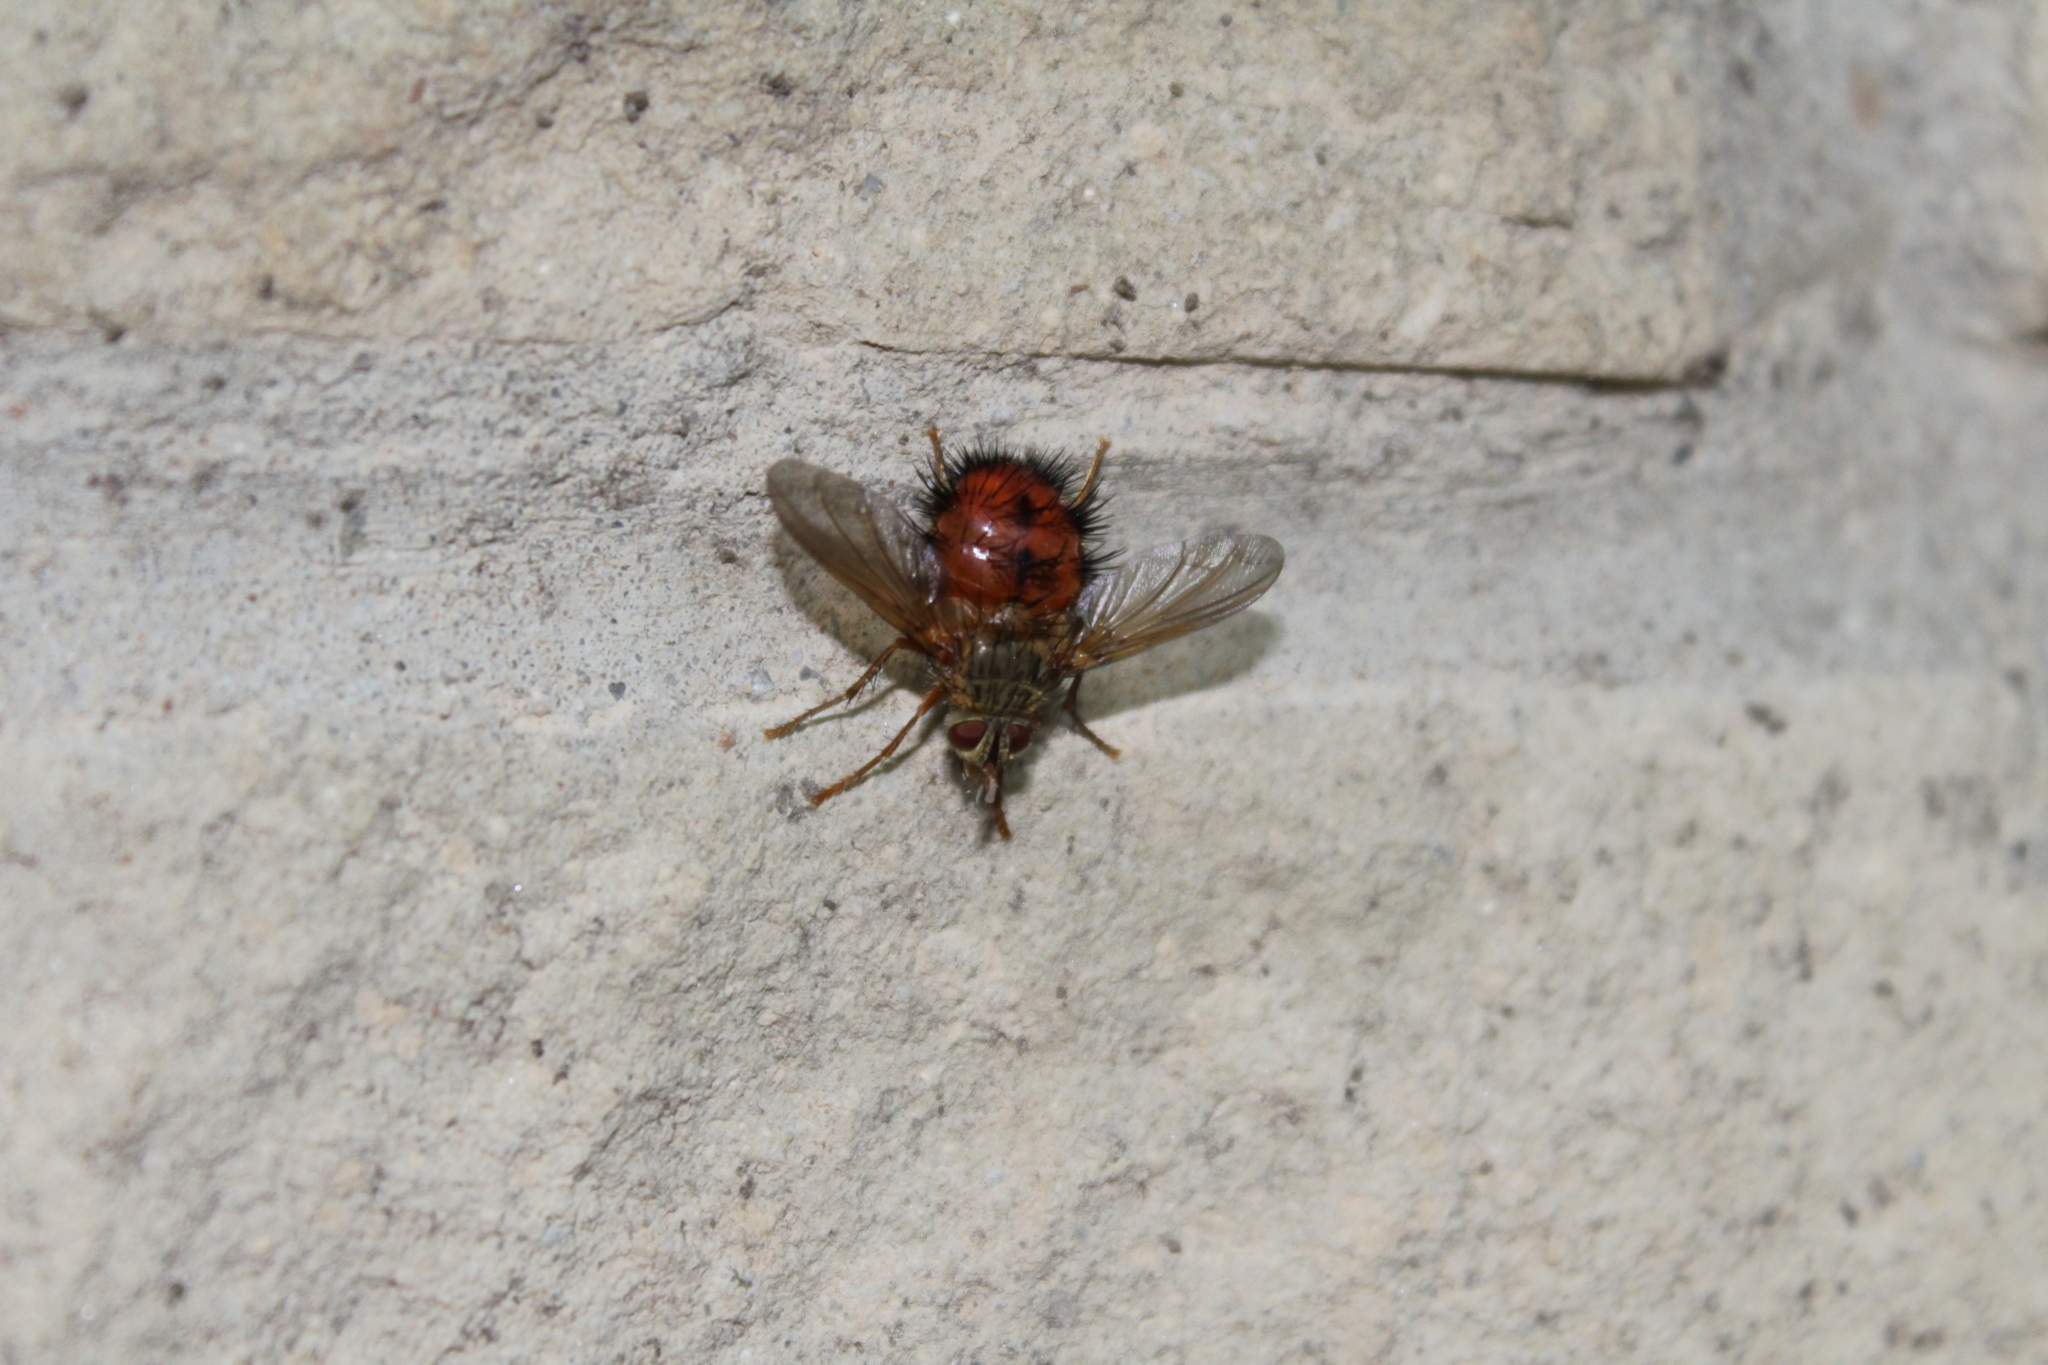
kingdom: Animalia
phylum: Arthropoda
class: Insecta
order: Diptera
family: Tachinidae
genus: Hystricia
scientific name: Hystricia abrupta
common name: Tomato bristle fly
